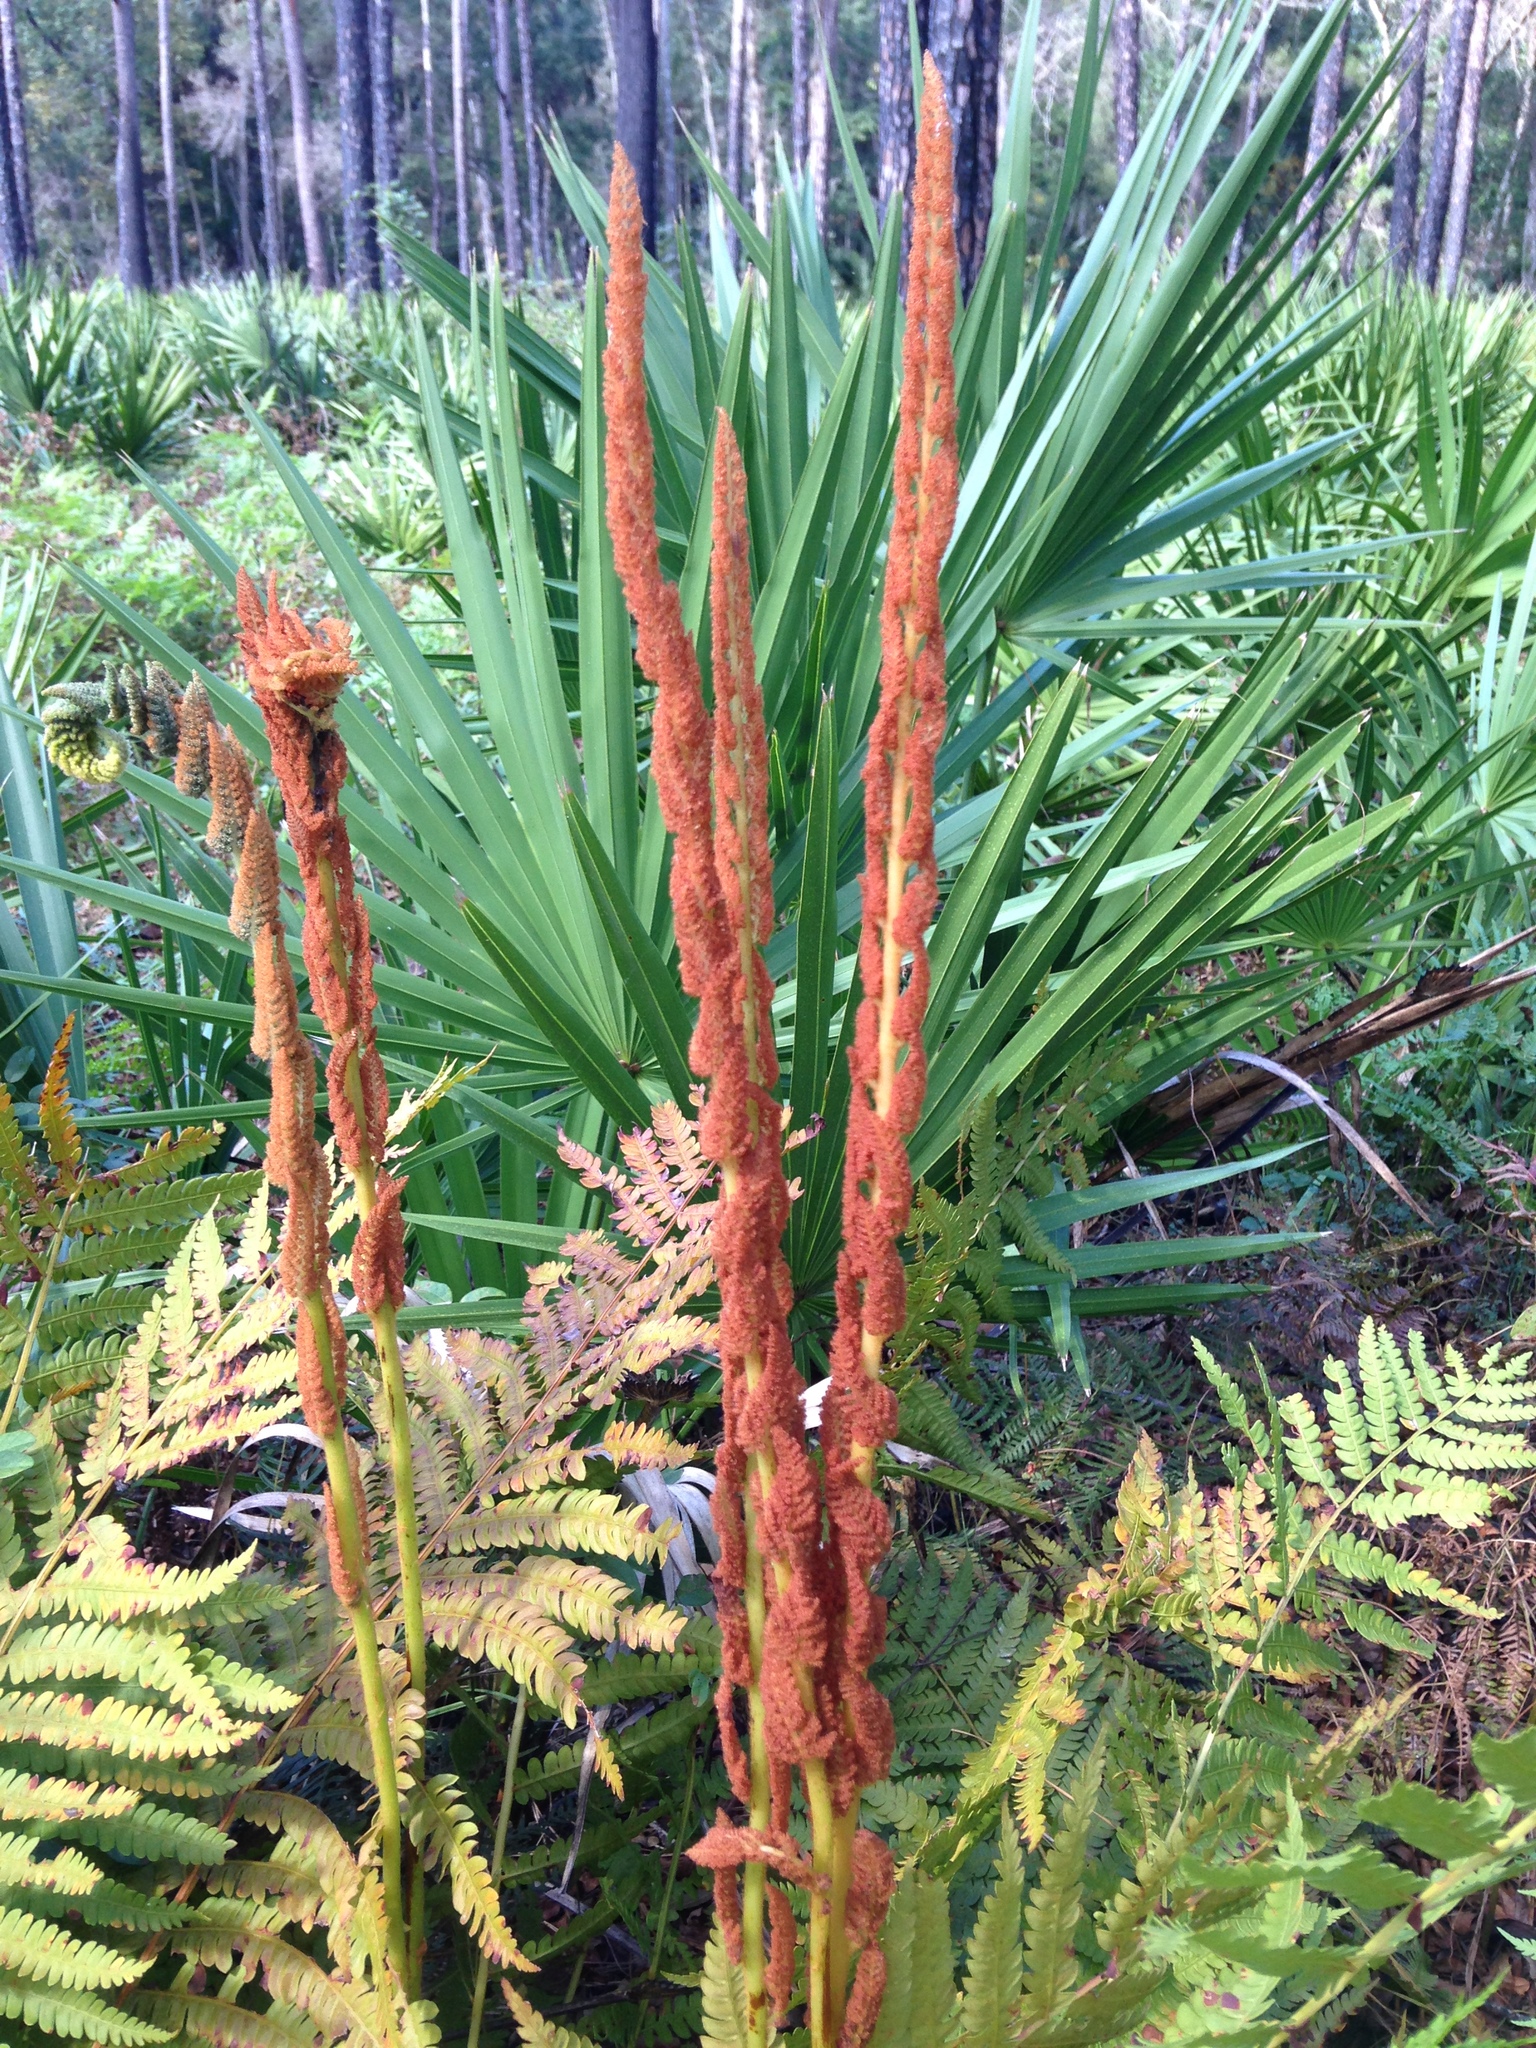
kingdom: Plantae
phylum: Tracheophyta
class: Polypodiopsida
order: Osmundales
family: Osmundaceae
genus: Osmundastrum
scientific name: Osmundastrum cinnamomeum
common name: Cinnamon fern
